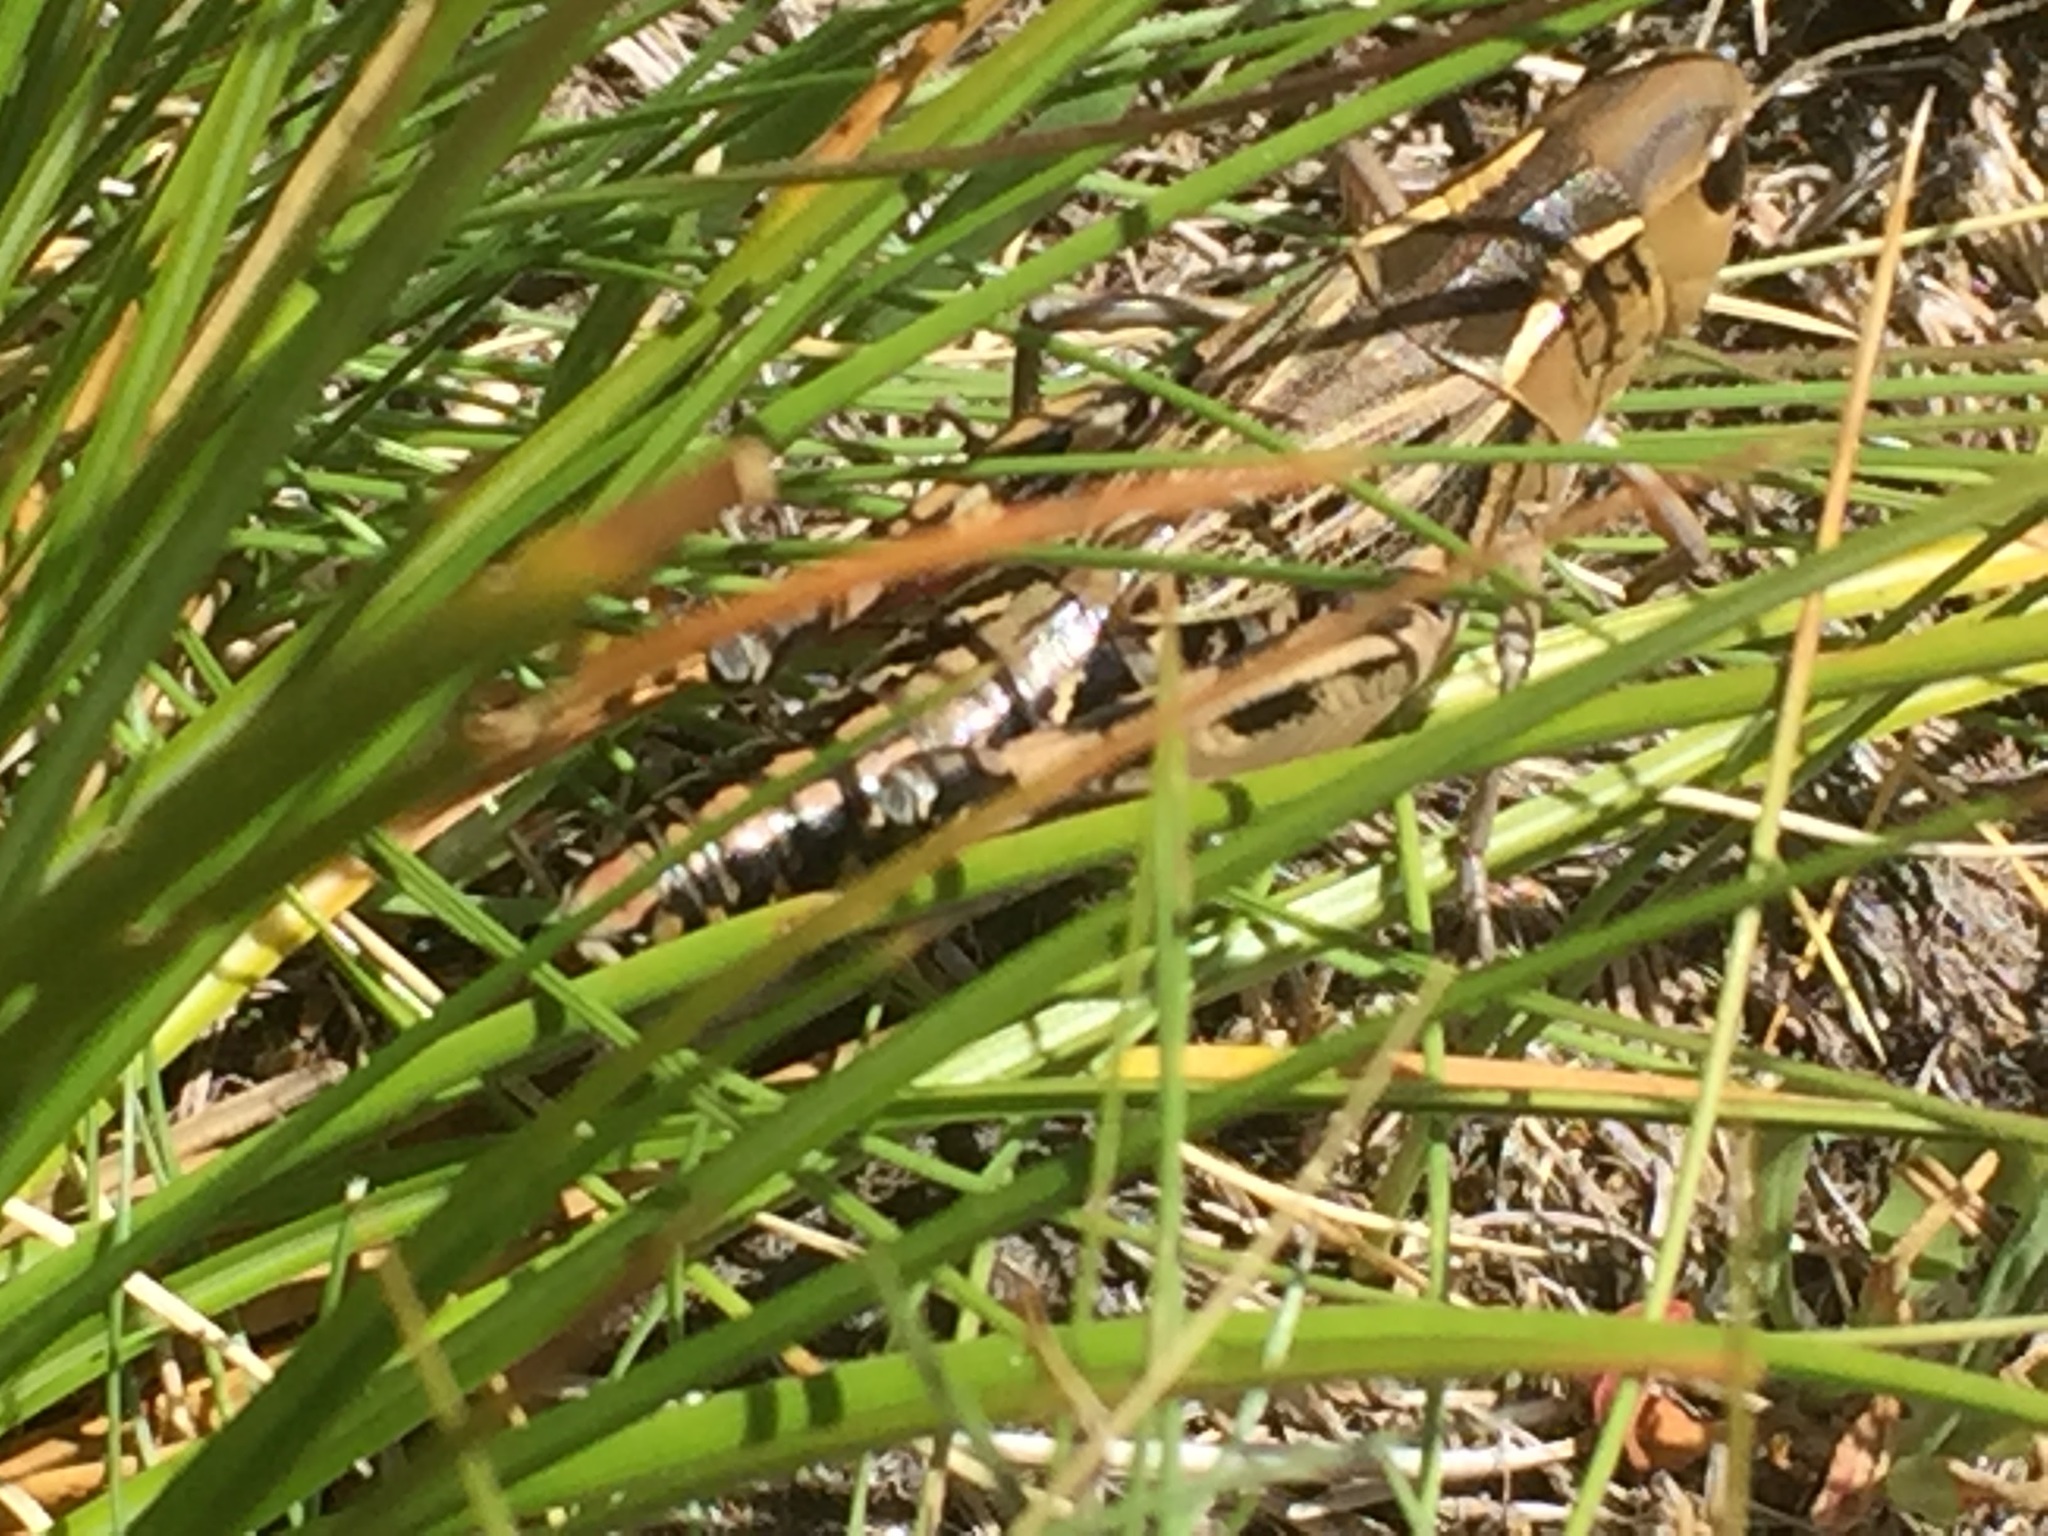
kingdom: Animalia
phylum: Arthropoda
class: Insecta
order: Orthoptera
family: Acrididae
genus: Arcyptera
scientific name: Arcyptera tornosi
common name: Iberian banded grasshopper
